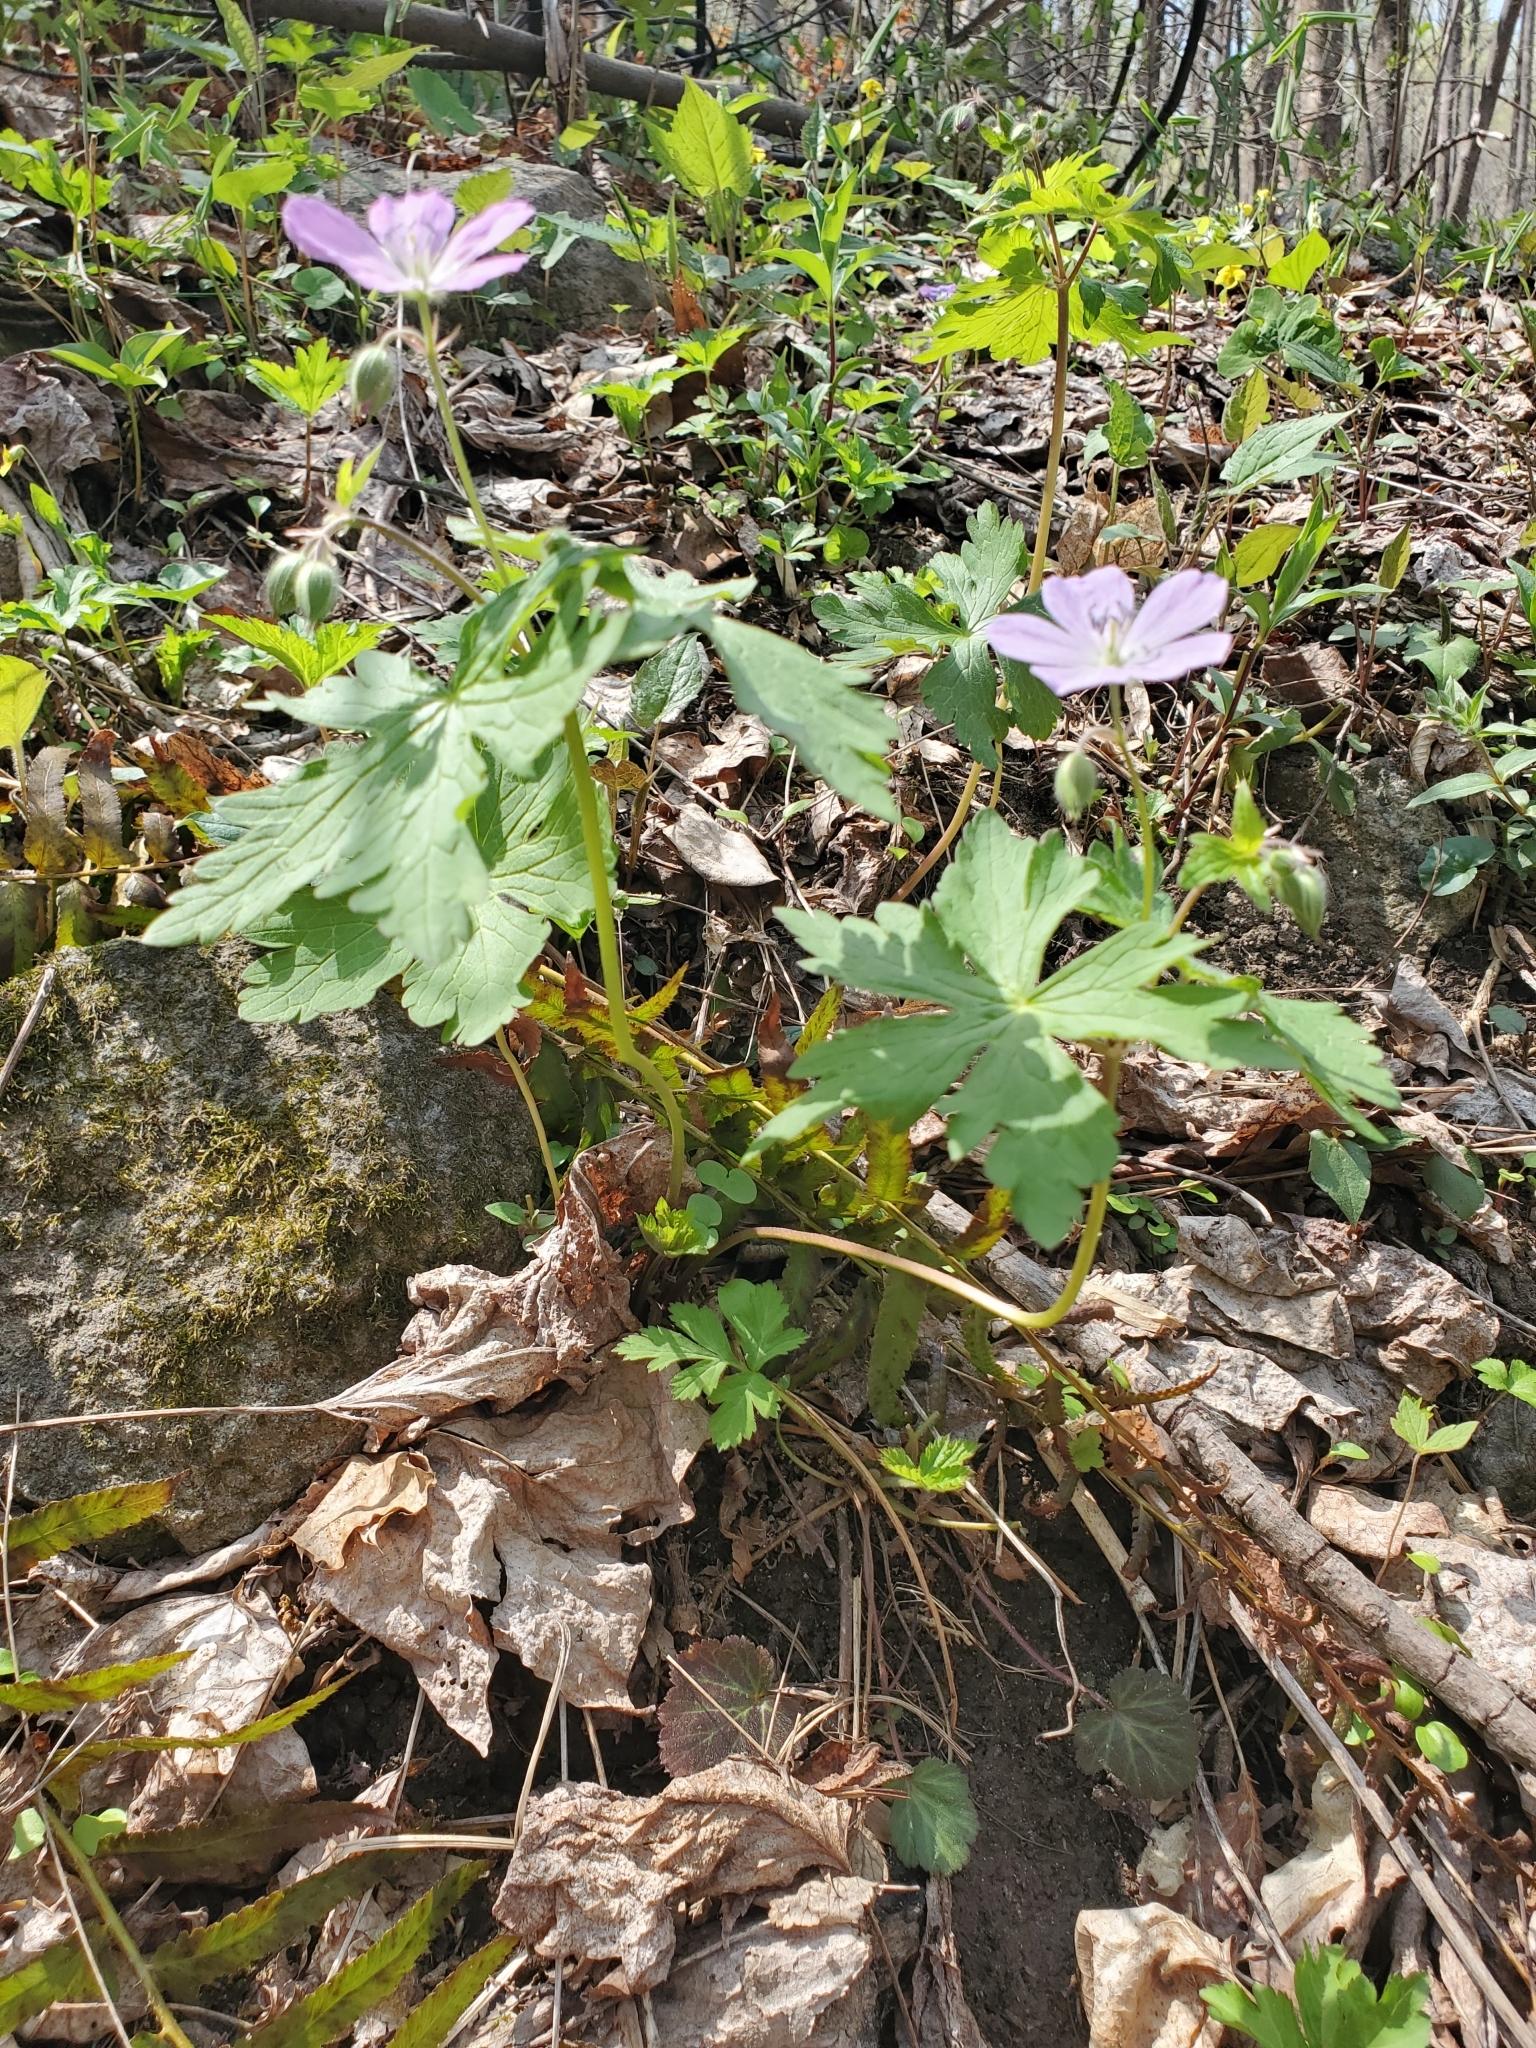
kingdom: Plantae
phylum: Tracheophyta
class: Magnoliopsida
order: Geraniales
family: Geraniaceae
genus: Geranium
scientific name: Geranium maculatum
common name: Spotted geranium
